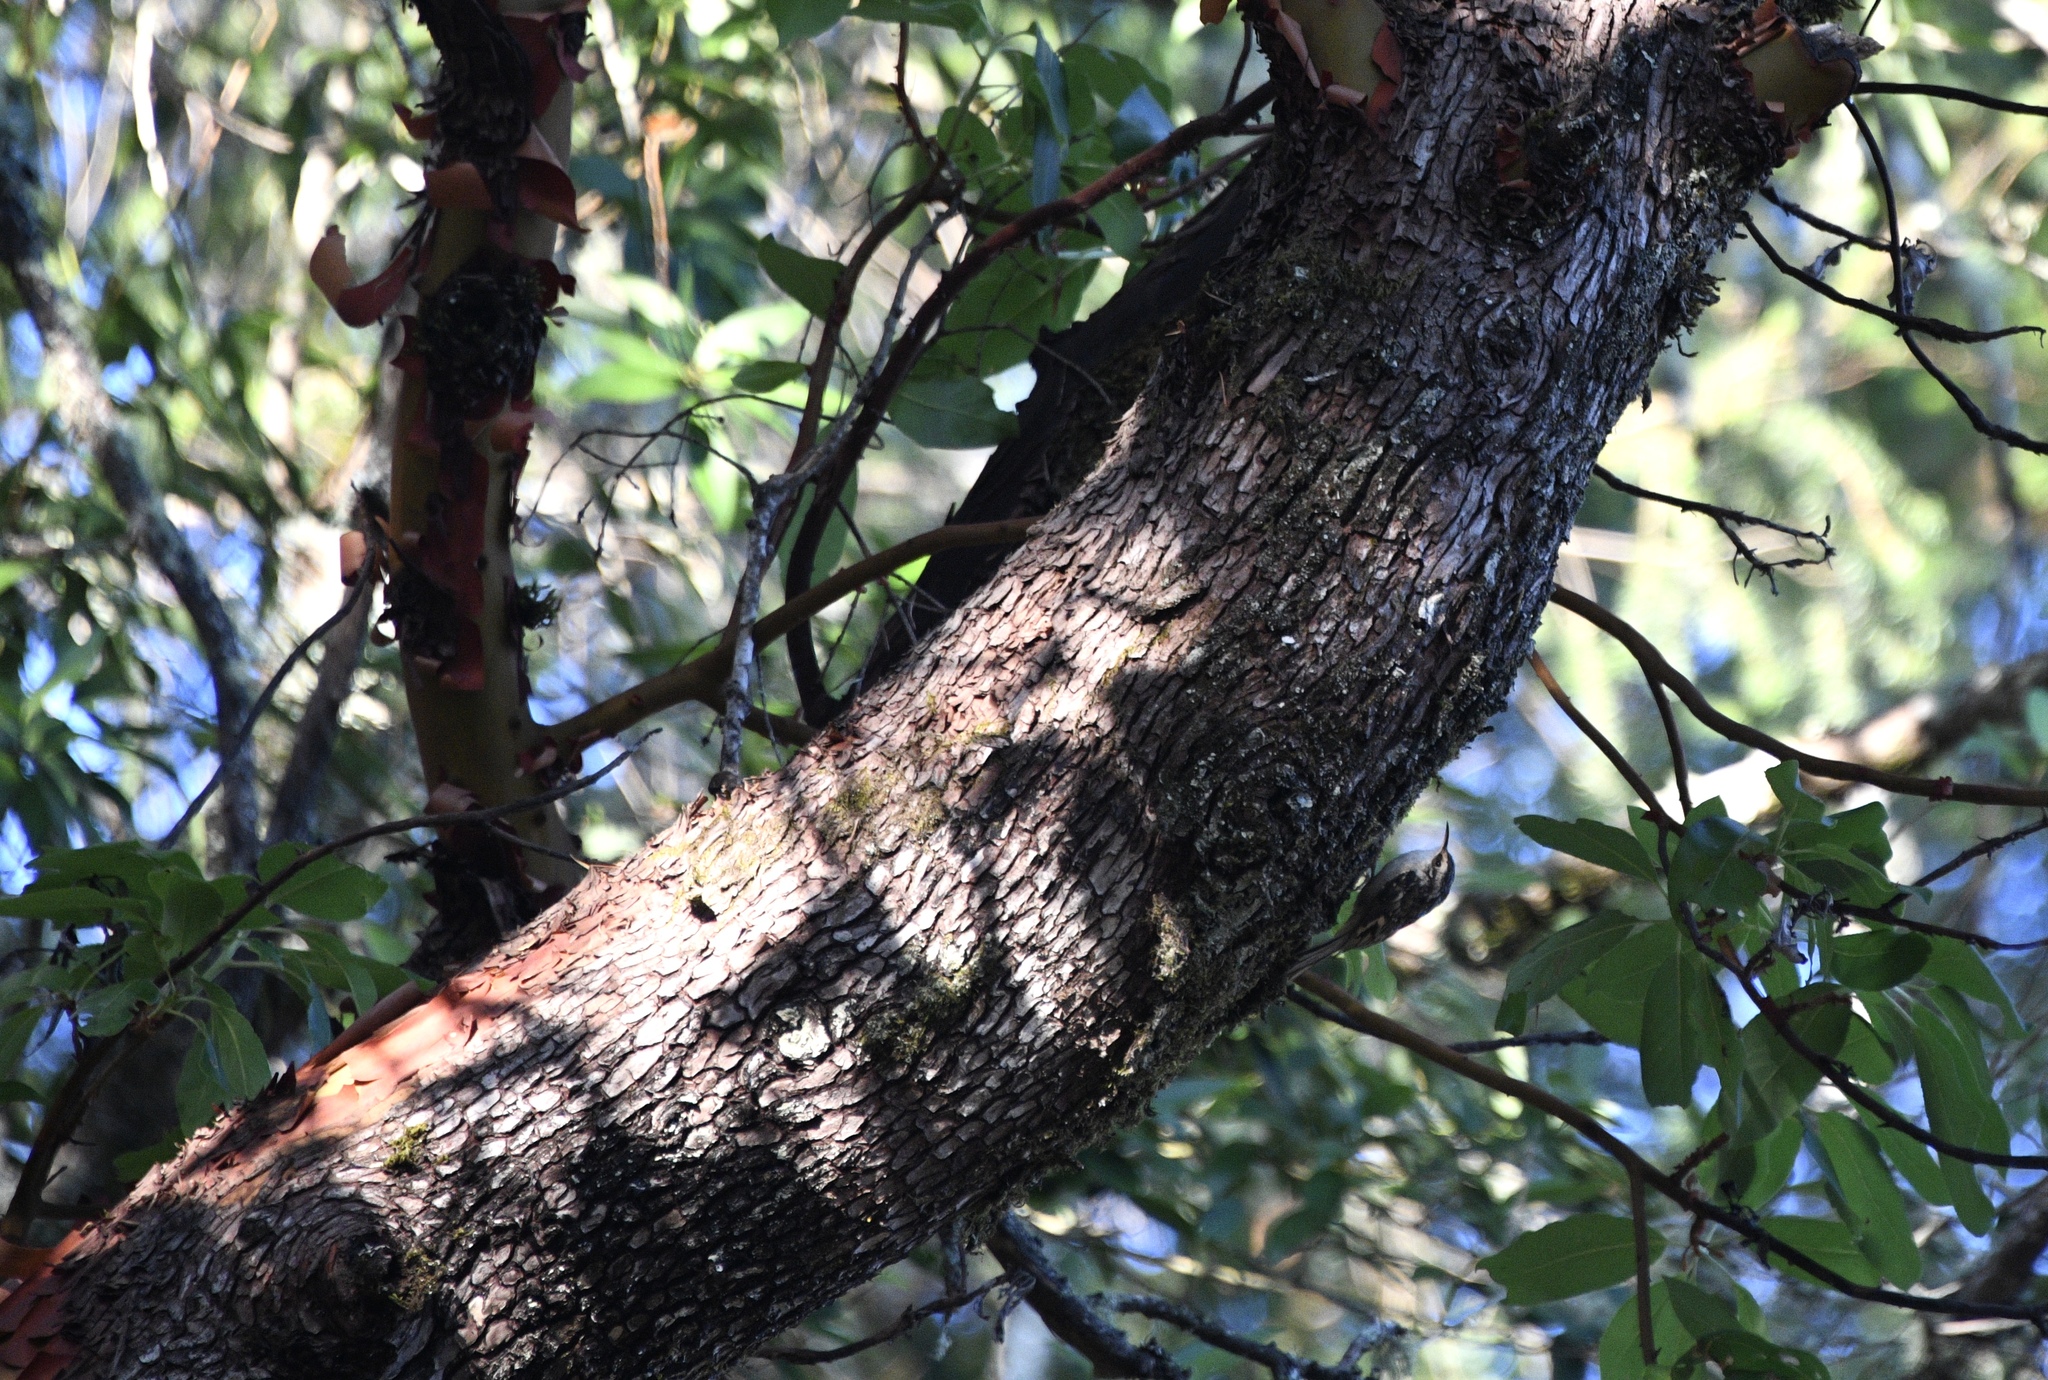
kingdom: Animalia
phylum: Chordata
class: Aves
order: Passeriformes
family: Certhiidae
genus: Certhia
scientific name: Certhia americana
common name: Brown creeper
